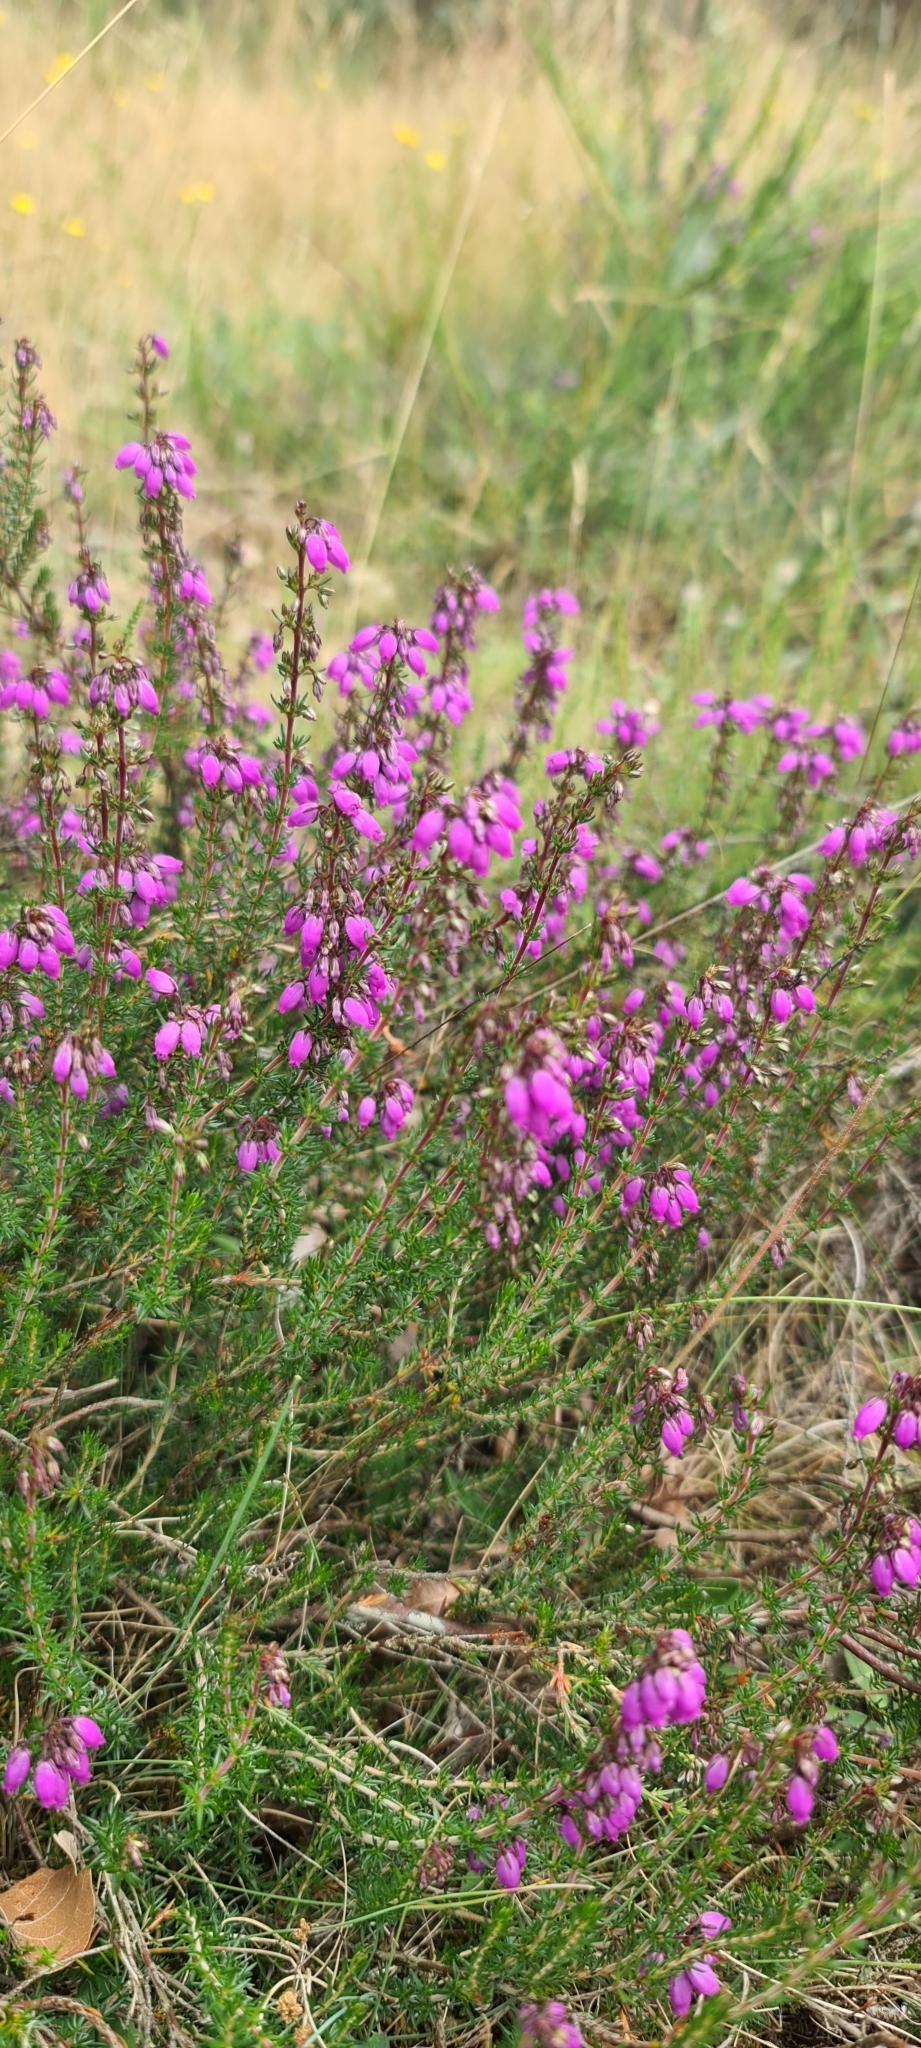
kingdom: Plantae
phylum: Tracheophyta
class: Magnoliopsida
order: Ericales
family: Ericaceae
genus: Erica
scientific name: Erica cinerea
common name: Bell heather
